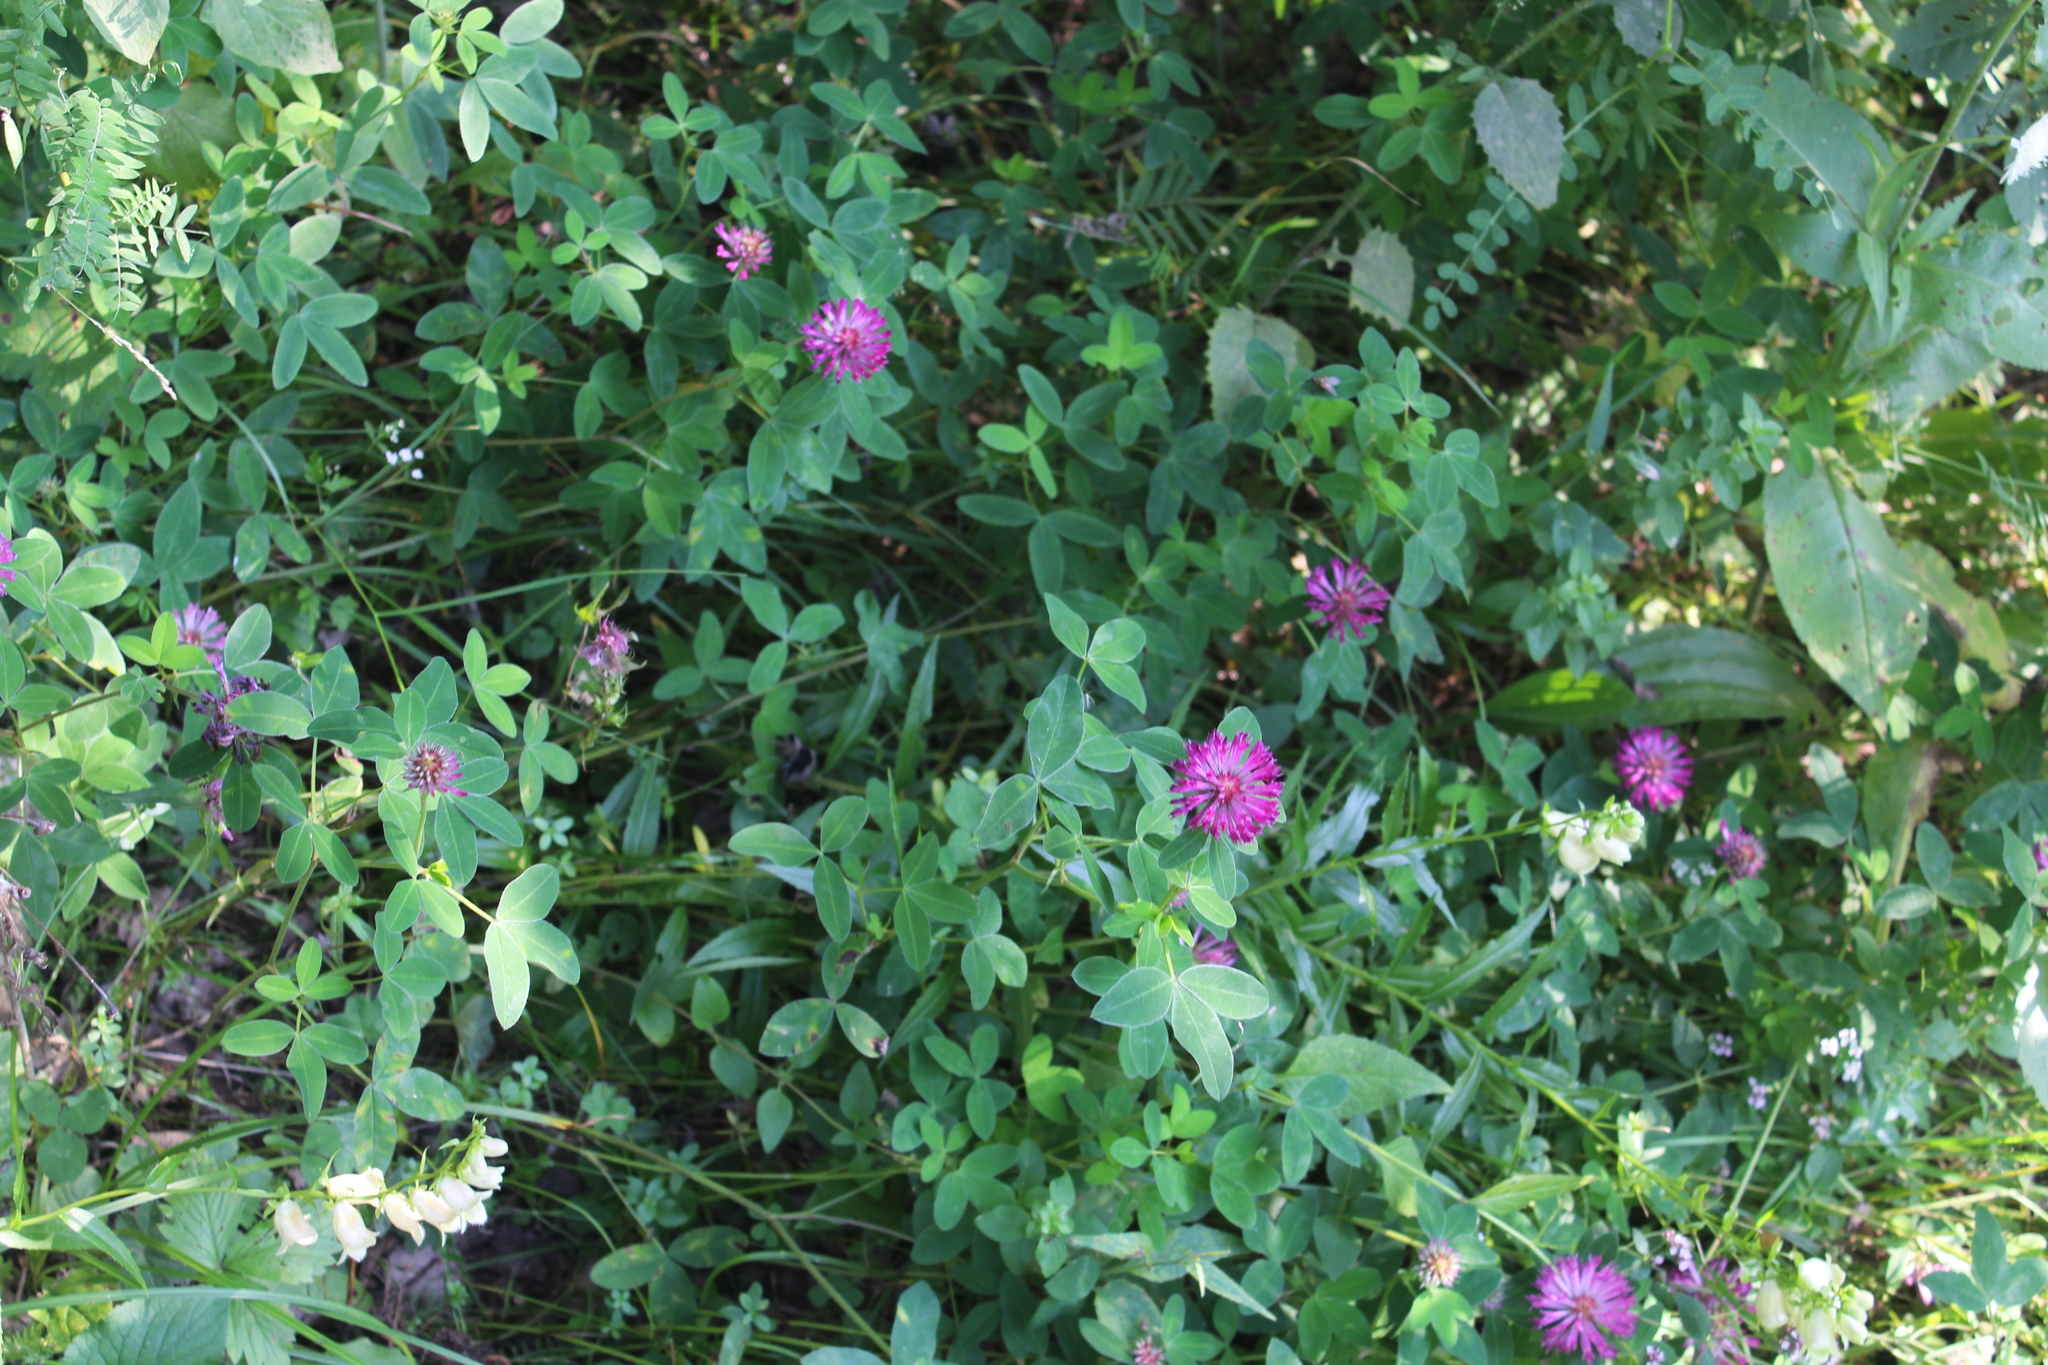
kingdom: Plantae
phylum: Tracheophyta
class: Magnoliopsida
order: Fabales
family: Fabaceae
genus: Trifolium
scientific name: Trifolium medium
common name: Zigzag clover
